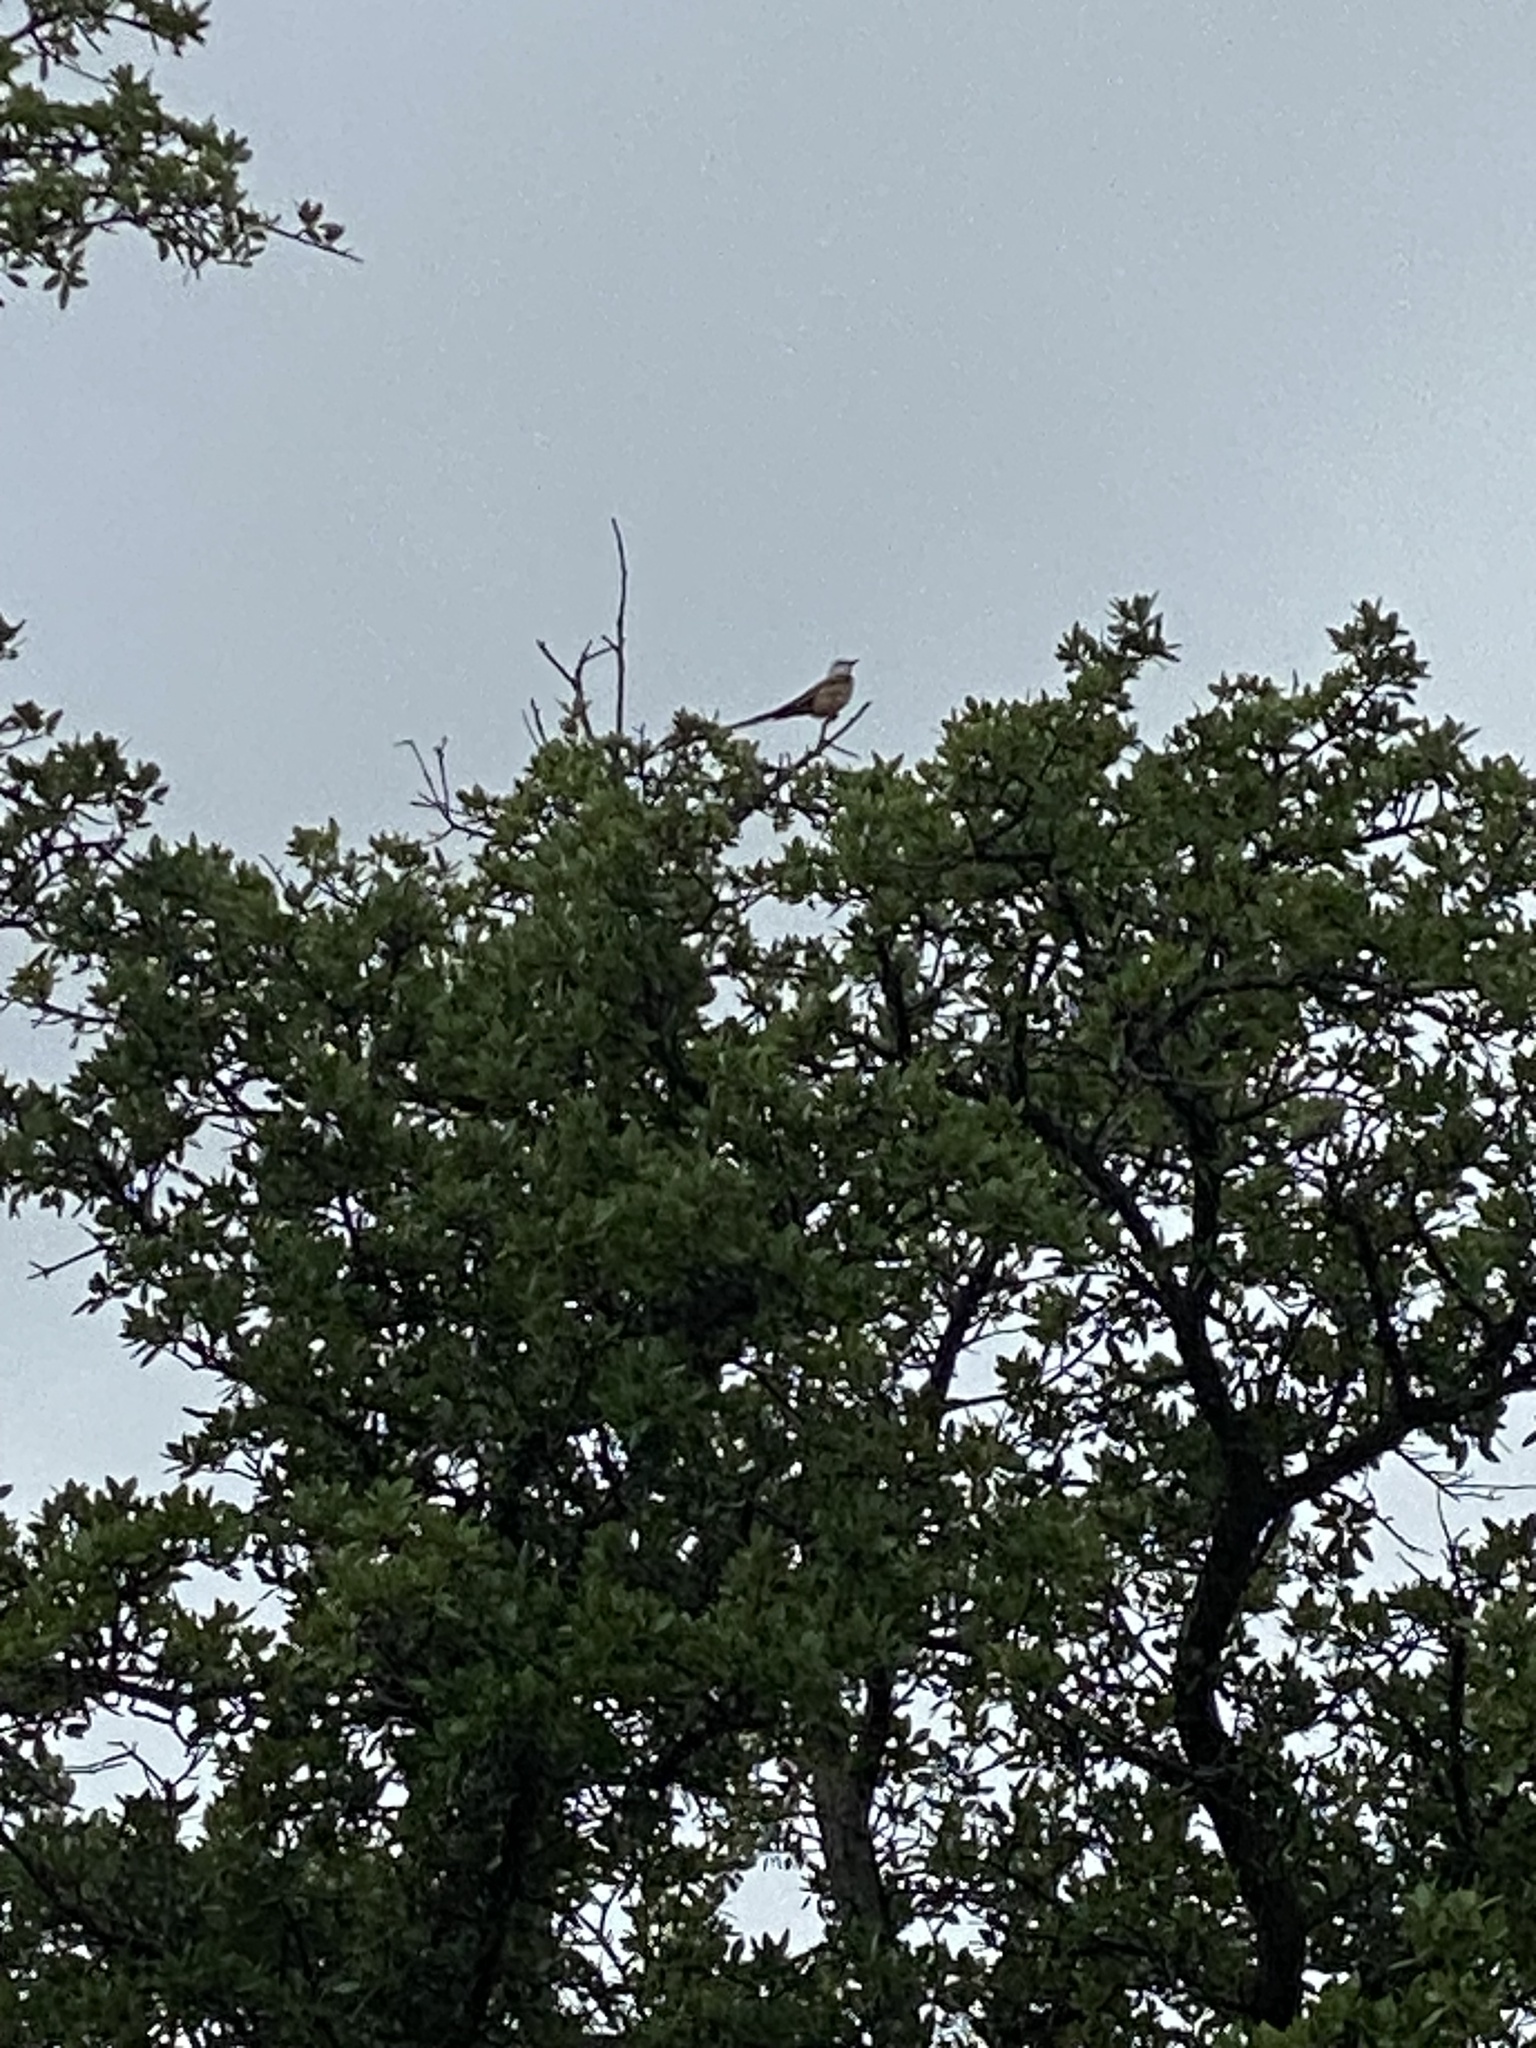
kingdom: Animalia
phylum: Chordata
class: Aves
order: Passeriformes
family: Tyrannidae
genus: Tyrannus
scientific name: Tyrannus forficatus
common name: Scissor-tailed flycatcher
